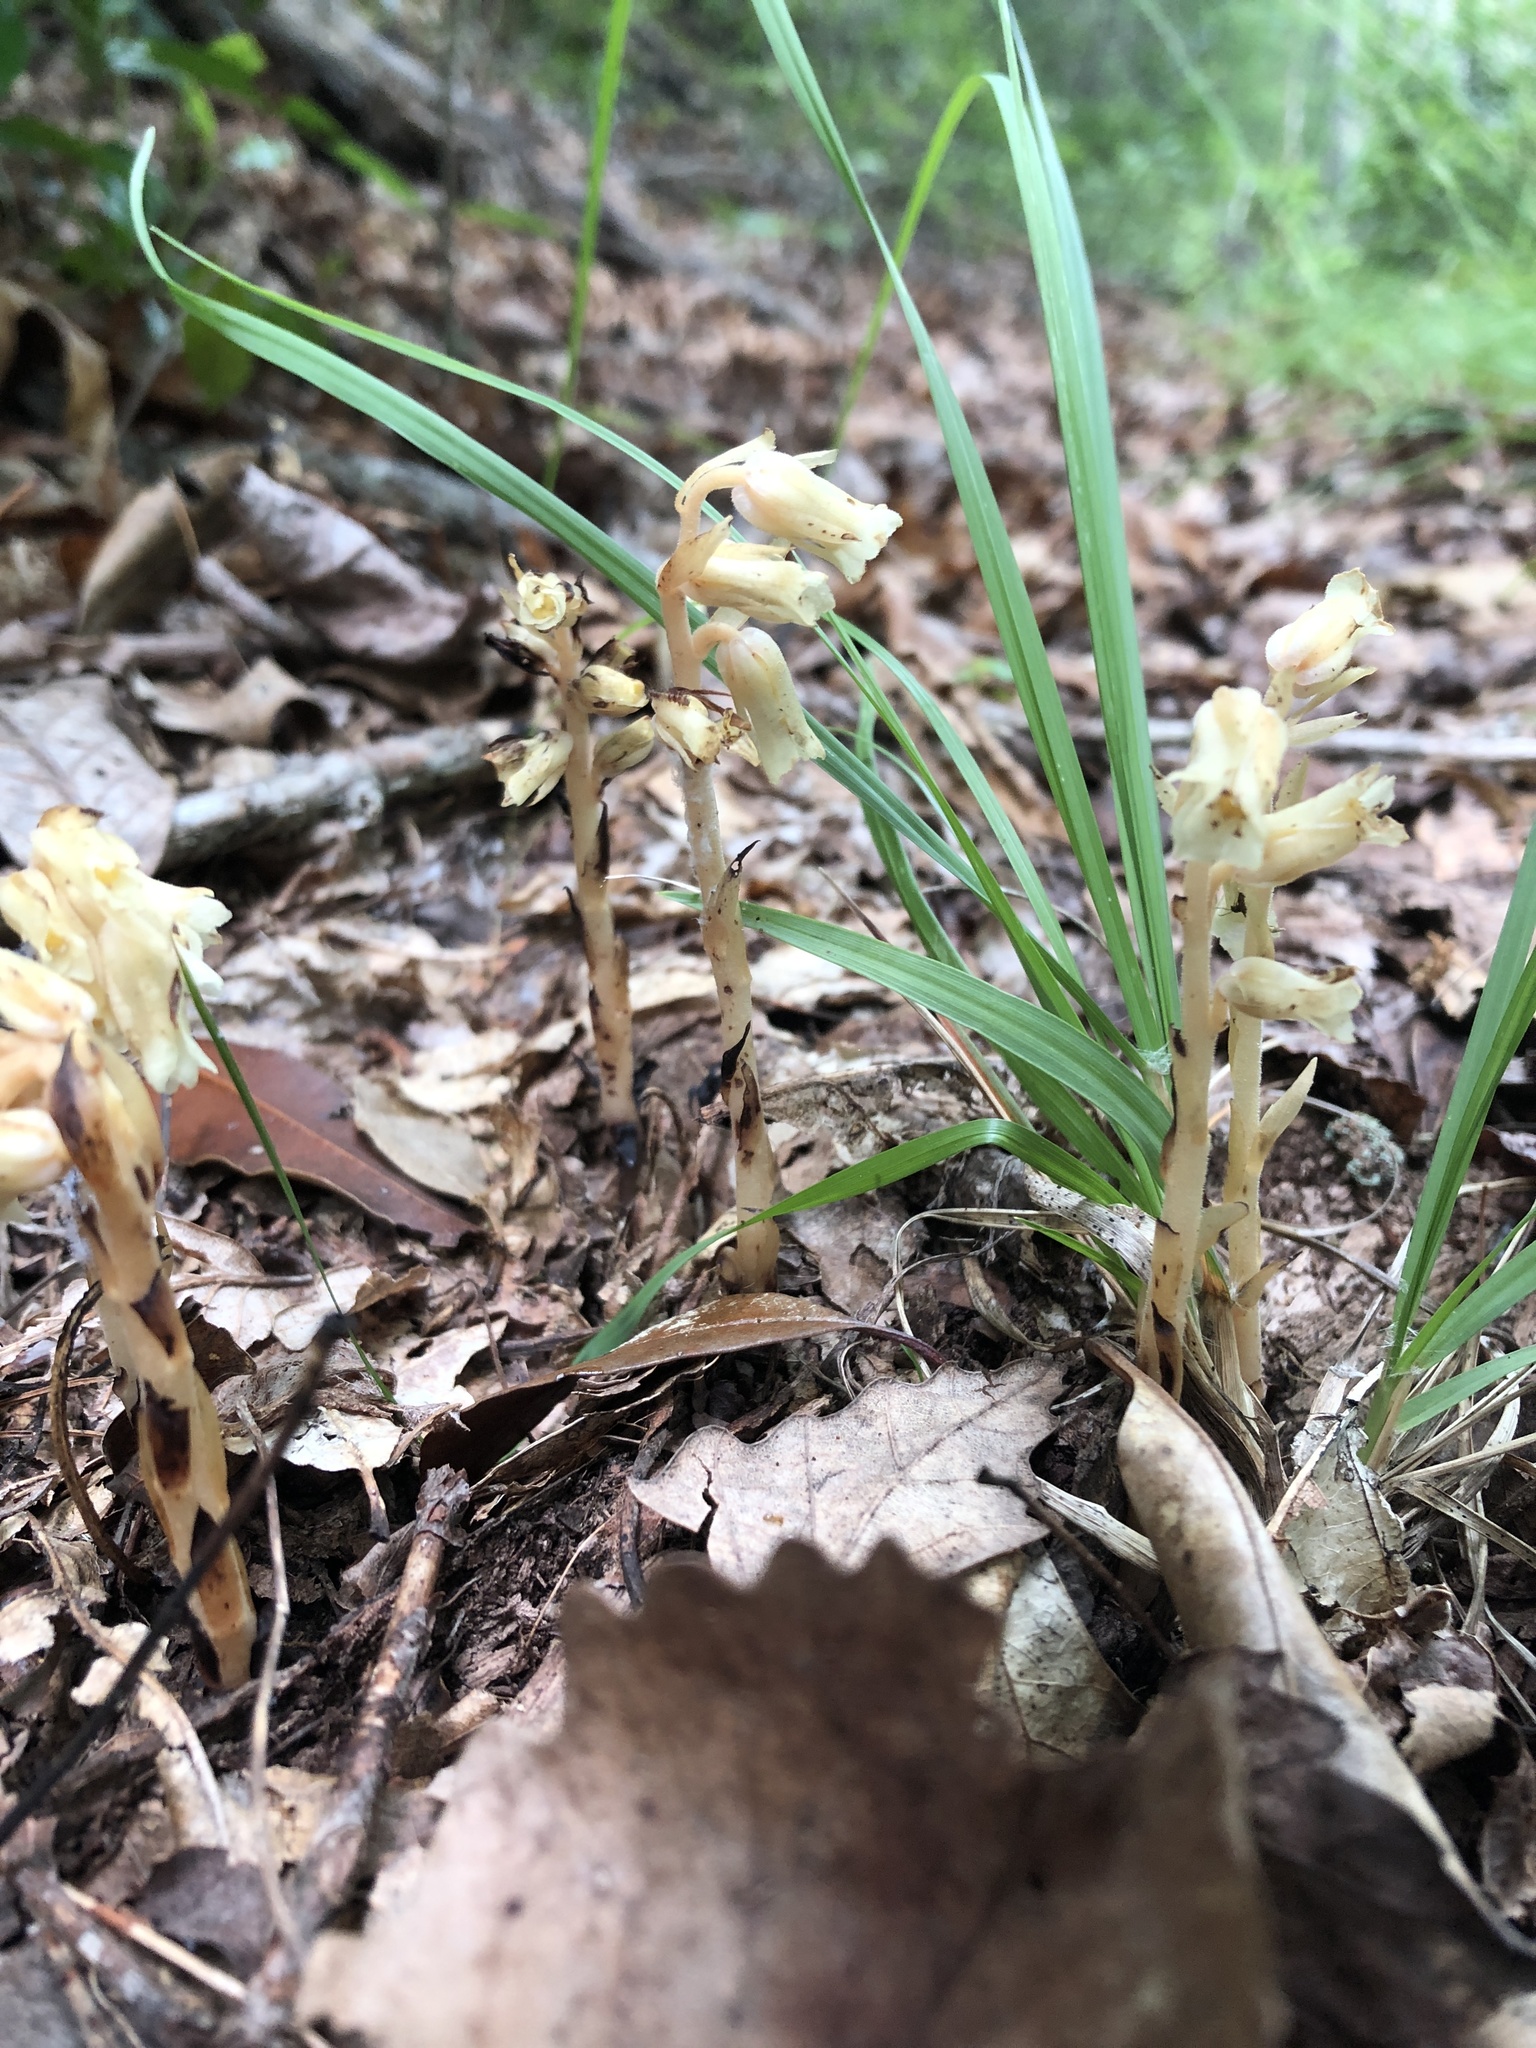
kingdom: Plantae
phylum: Tracheophyta
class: Magnoliopsida
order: Ericales
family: Ericaceae
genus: Hypopitys
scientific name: Hypopitys monotropa
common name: Yellow bird's-nest
